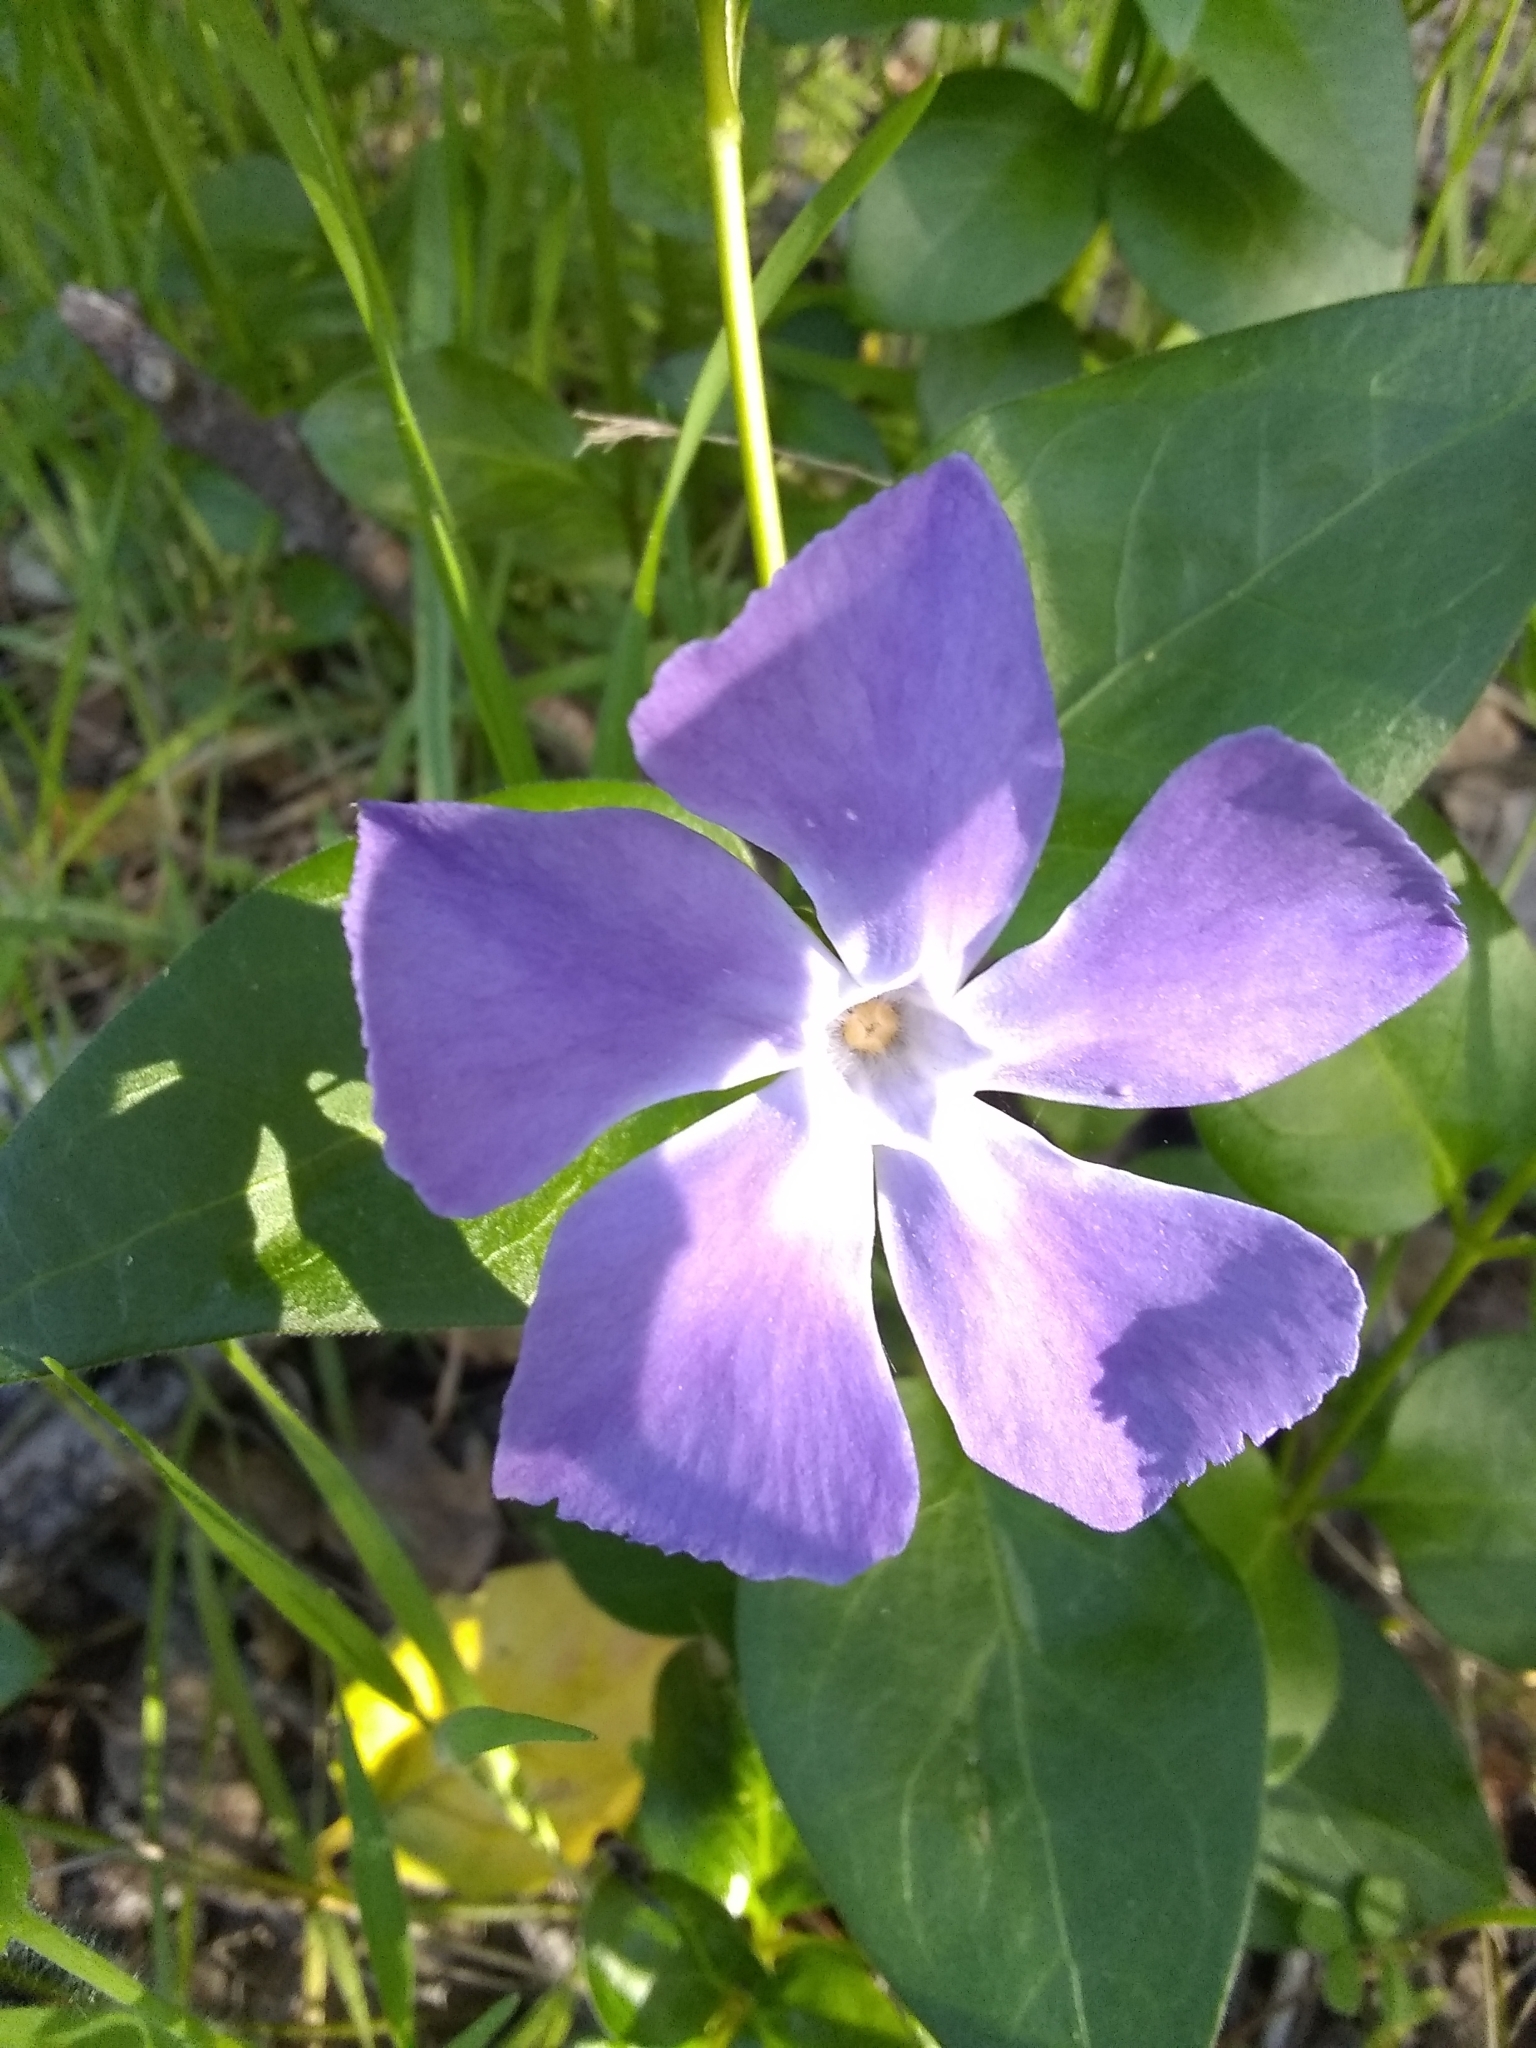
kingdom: Plantae
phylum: Tracheophyta
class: Magnoliopsida
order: Gentianales
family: Apocynaceae
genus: Vinca
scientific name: Vinca major
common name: Greater periwinkle
